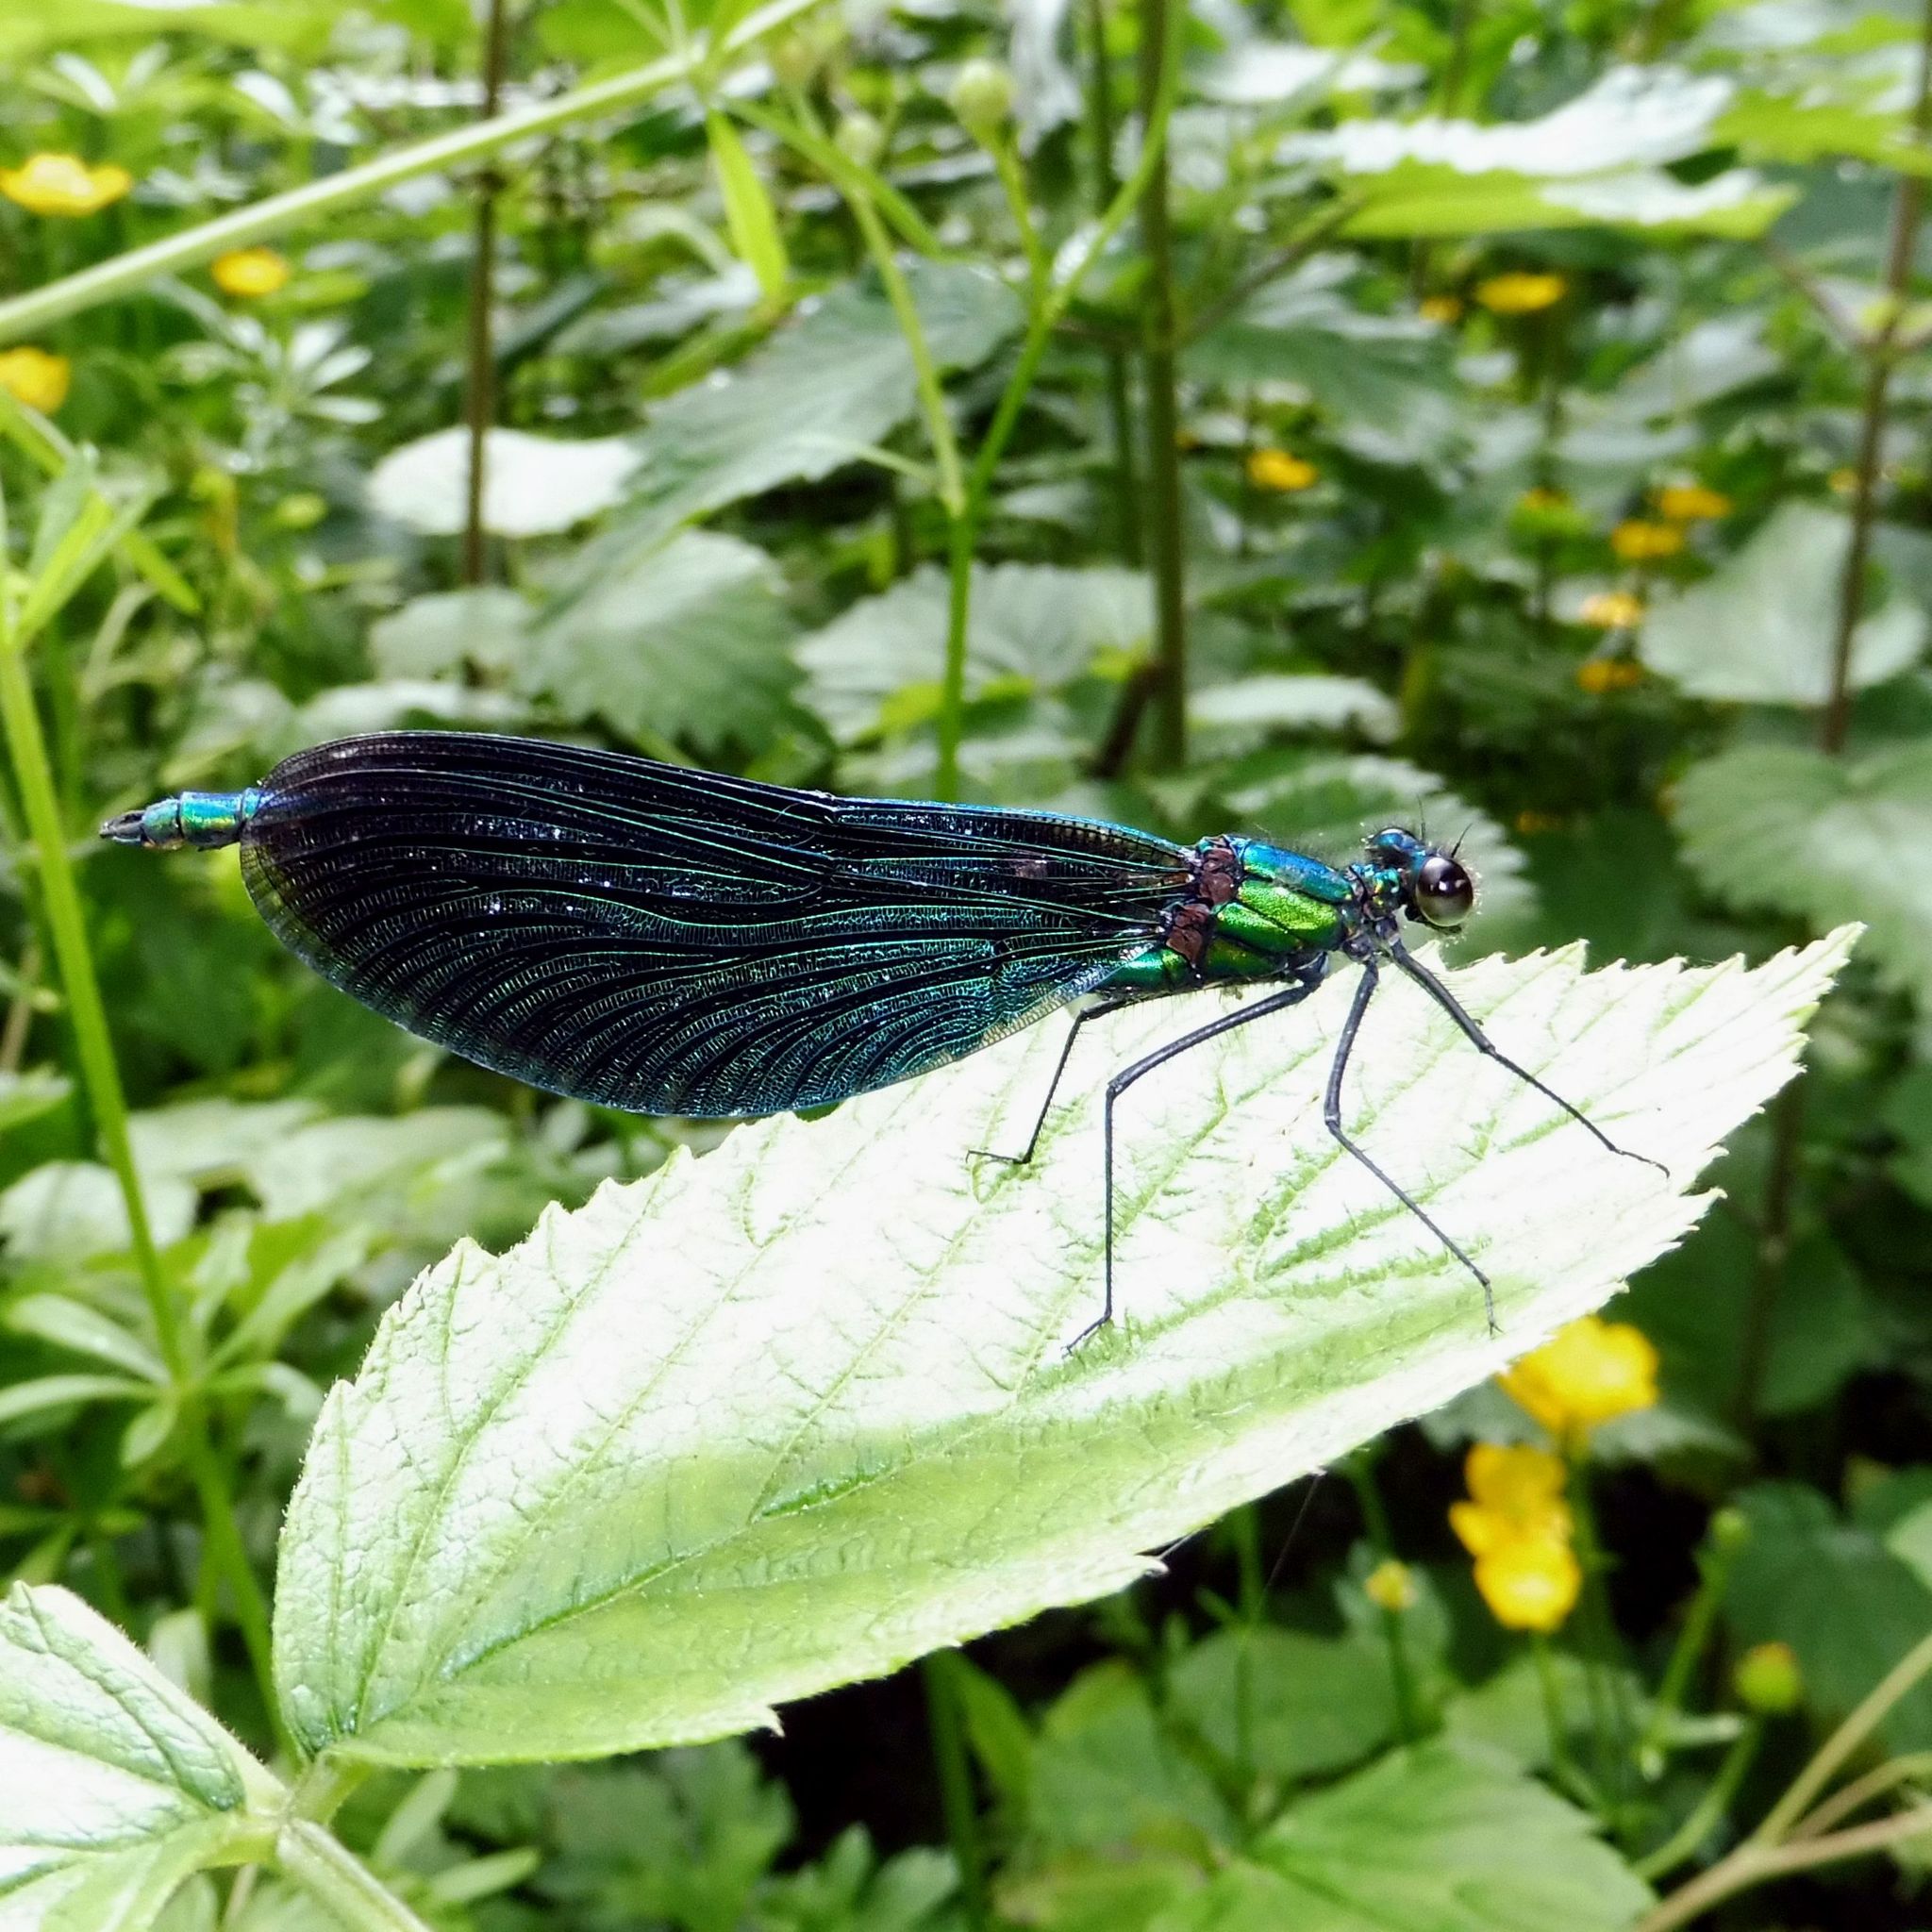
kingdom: Animalia
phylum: Arthropoda
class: Insecta
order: Odonata
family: Calopterygidae
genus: Calopteryx
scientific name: Calopteryx virgo
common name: Beautiful demoiselle
